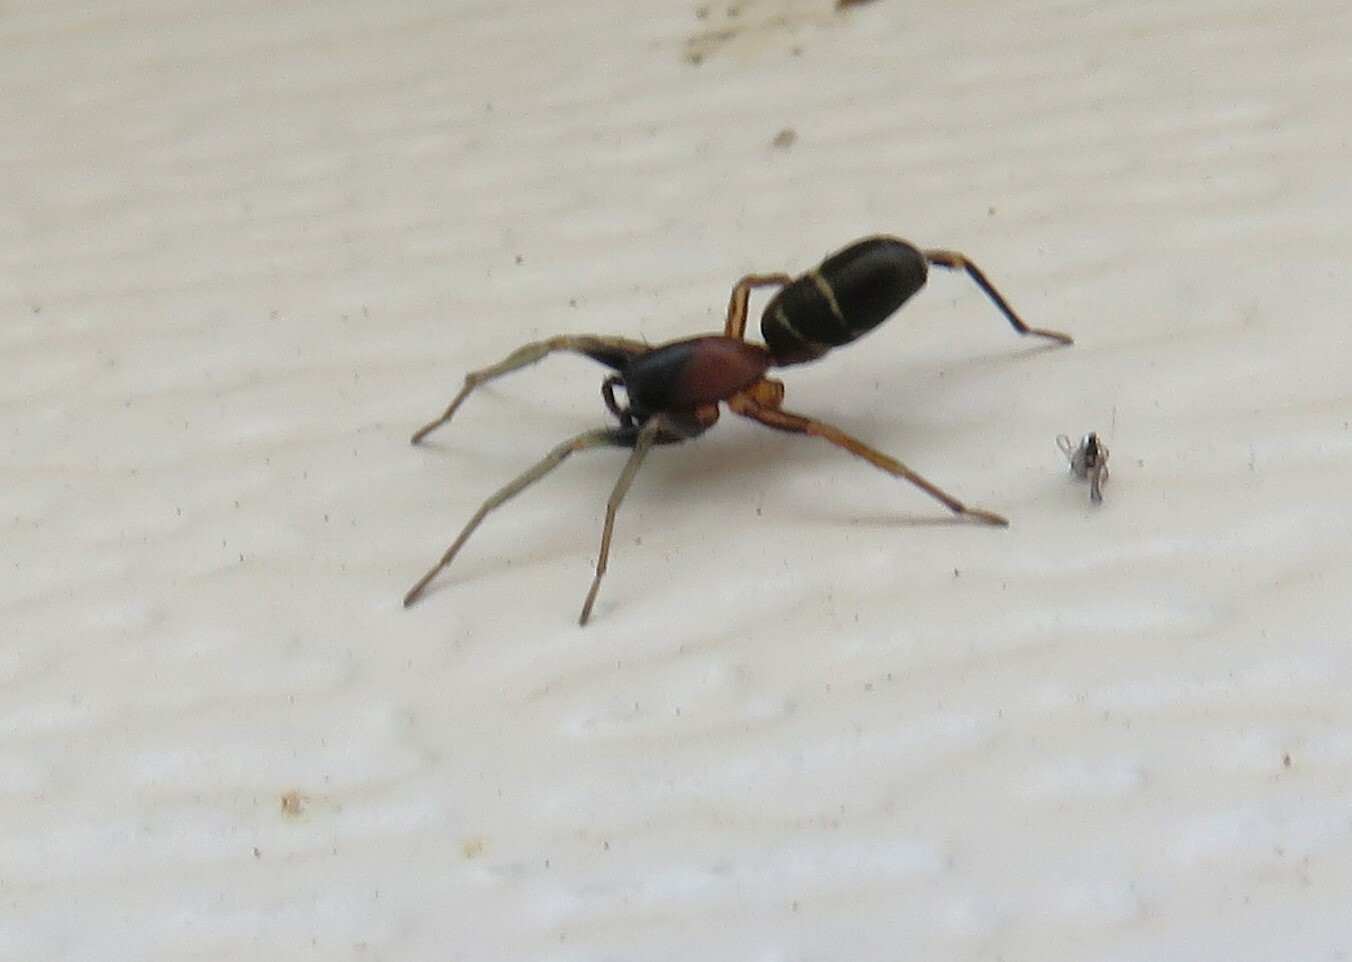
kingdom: Animalia
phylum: Arthropoda
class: Arachnida
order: Araneae
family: Corinnidae
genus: Castianeira
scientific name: Castianeira cingulata
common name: Two-banded ant-mimic sac spider
